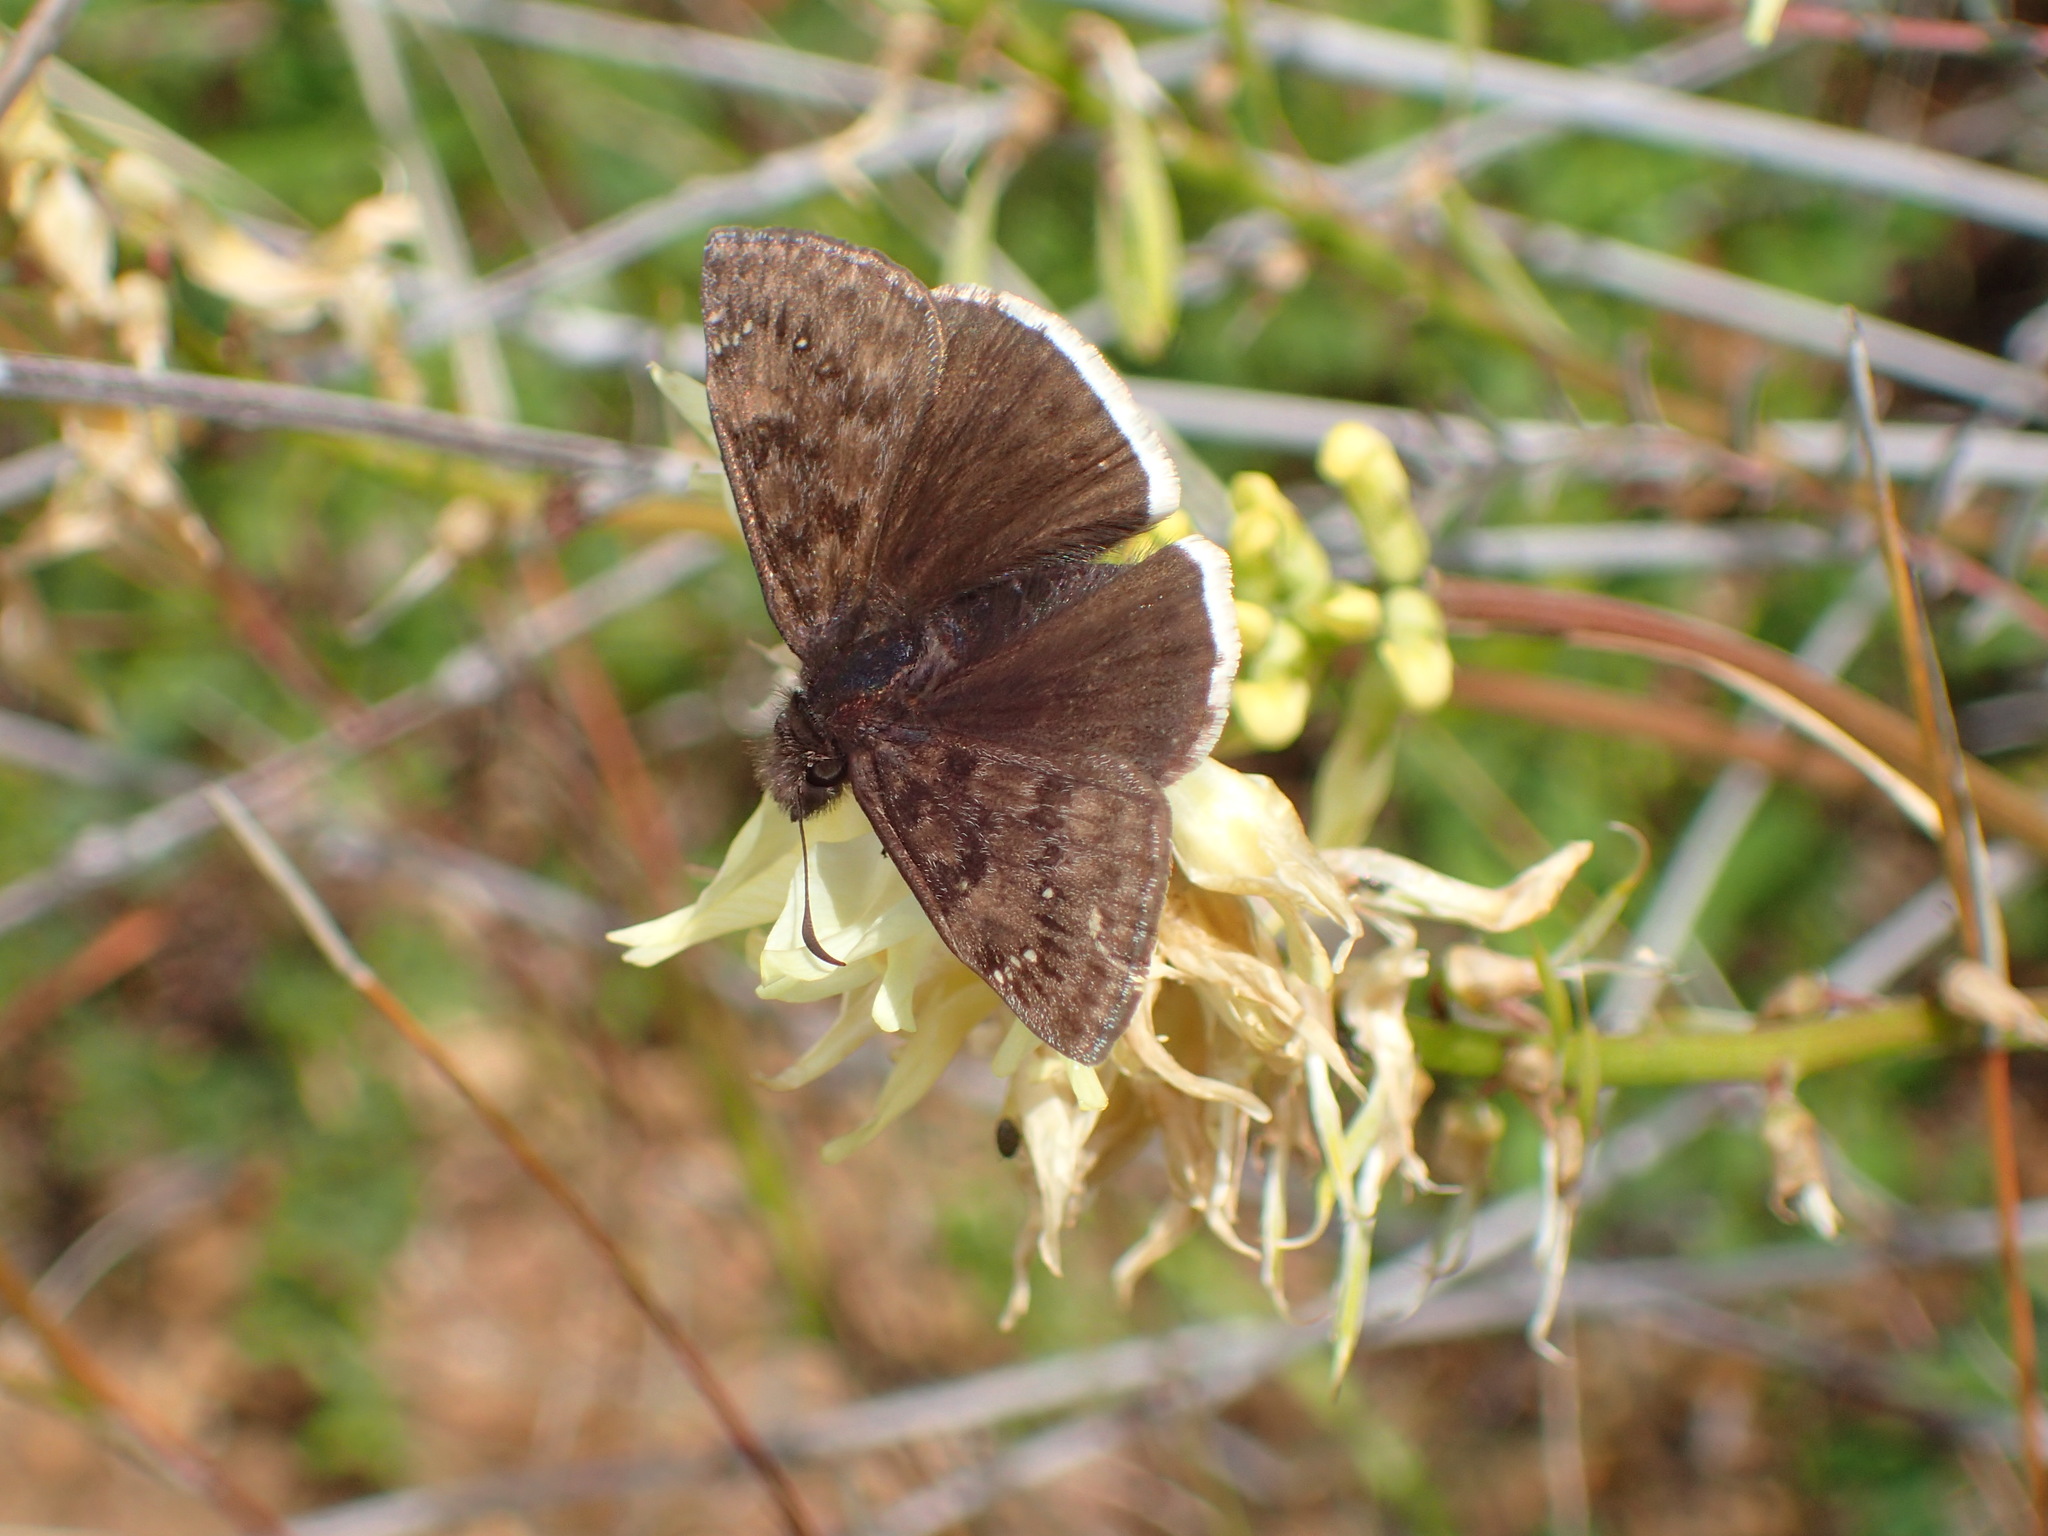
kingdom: Animalia
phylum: Arthropoda
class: Insecta
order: Lepidoptera
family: Hesperiidae
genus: Erynnis
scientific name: Erynnis tristis
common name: Mournful duskywing
